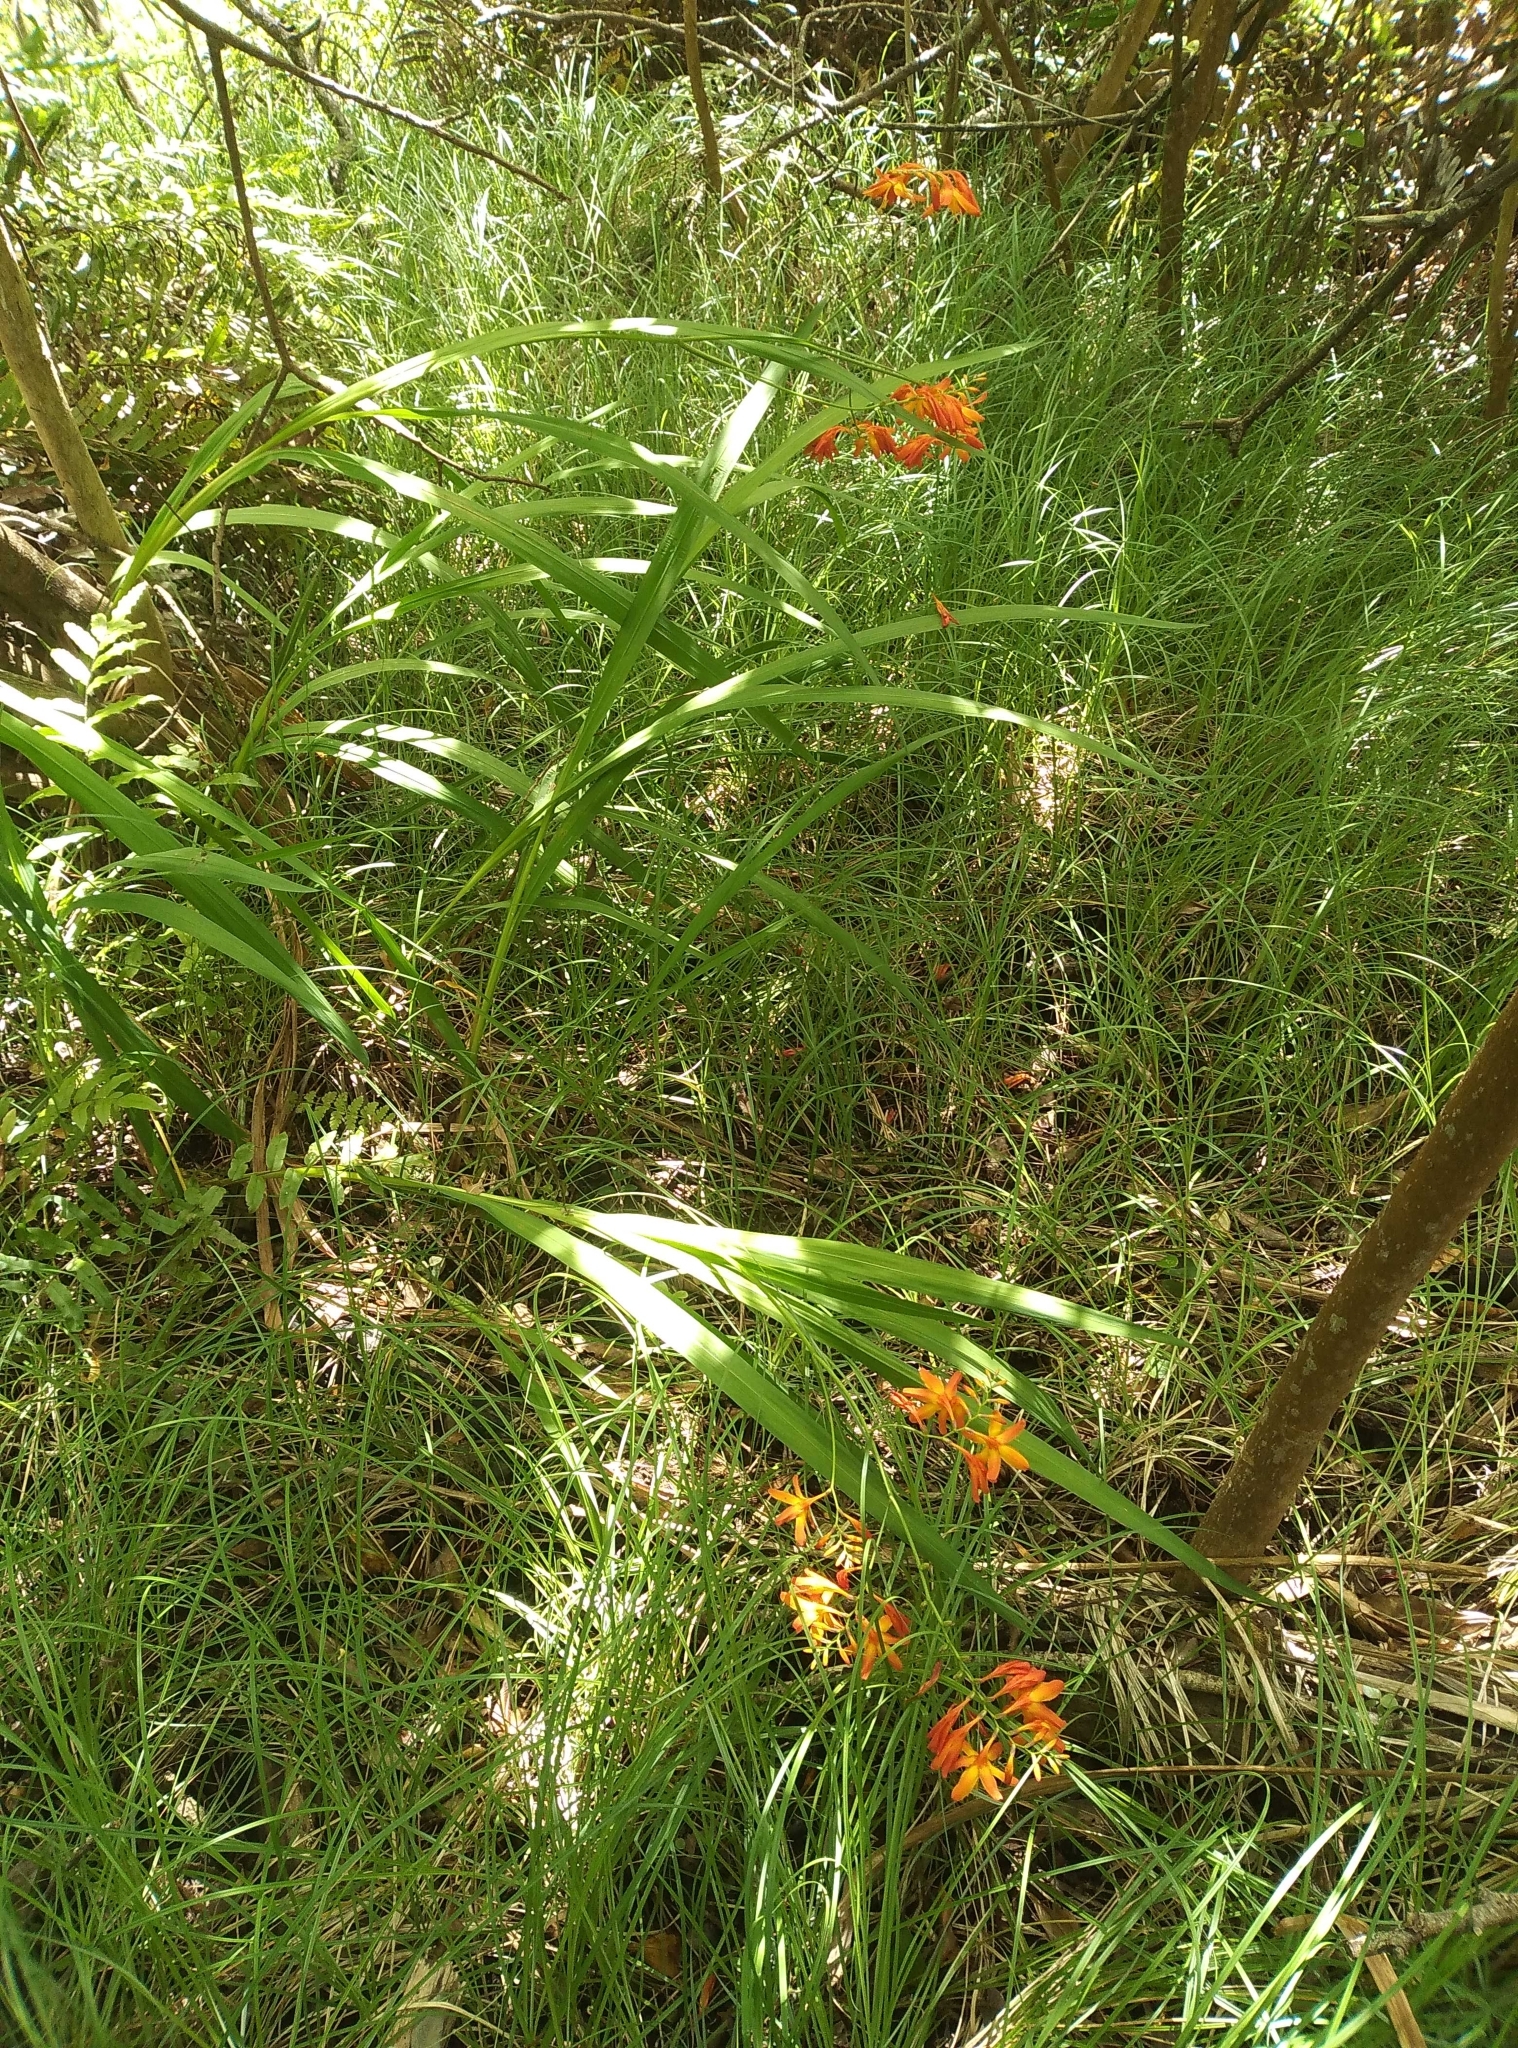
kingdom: Plantae
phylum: Tracheophyta
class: Liliopsida
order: Asparagales
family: Iridaceae
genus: Crocosmia
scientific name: Crocosmia crocosmiiflora
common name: Montbretia
